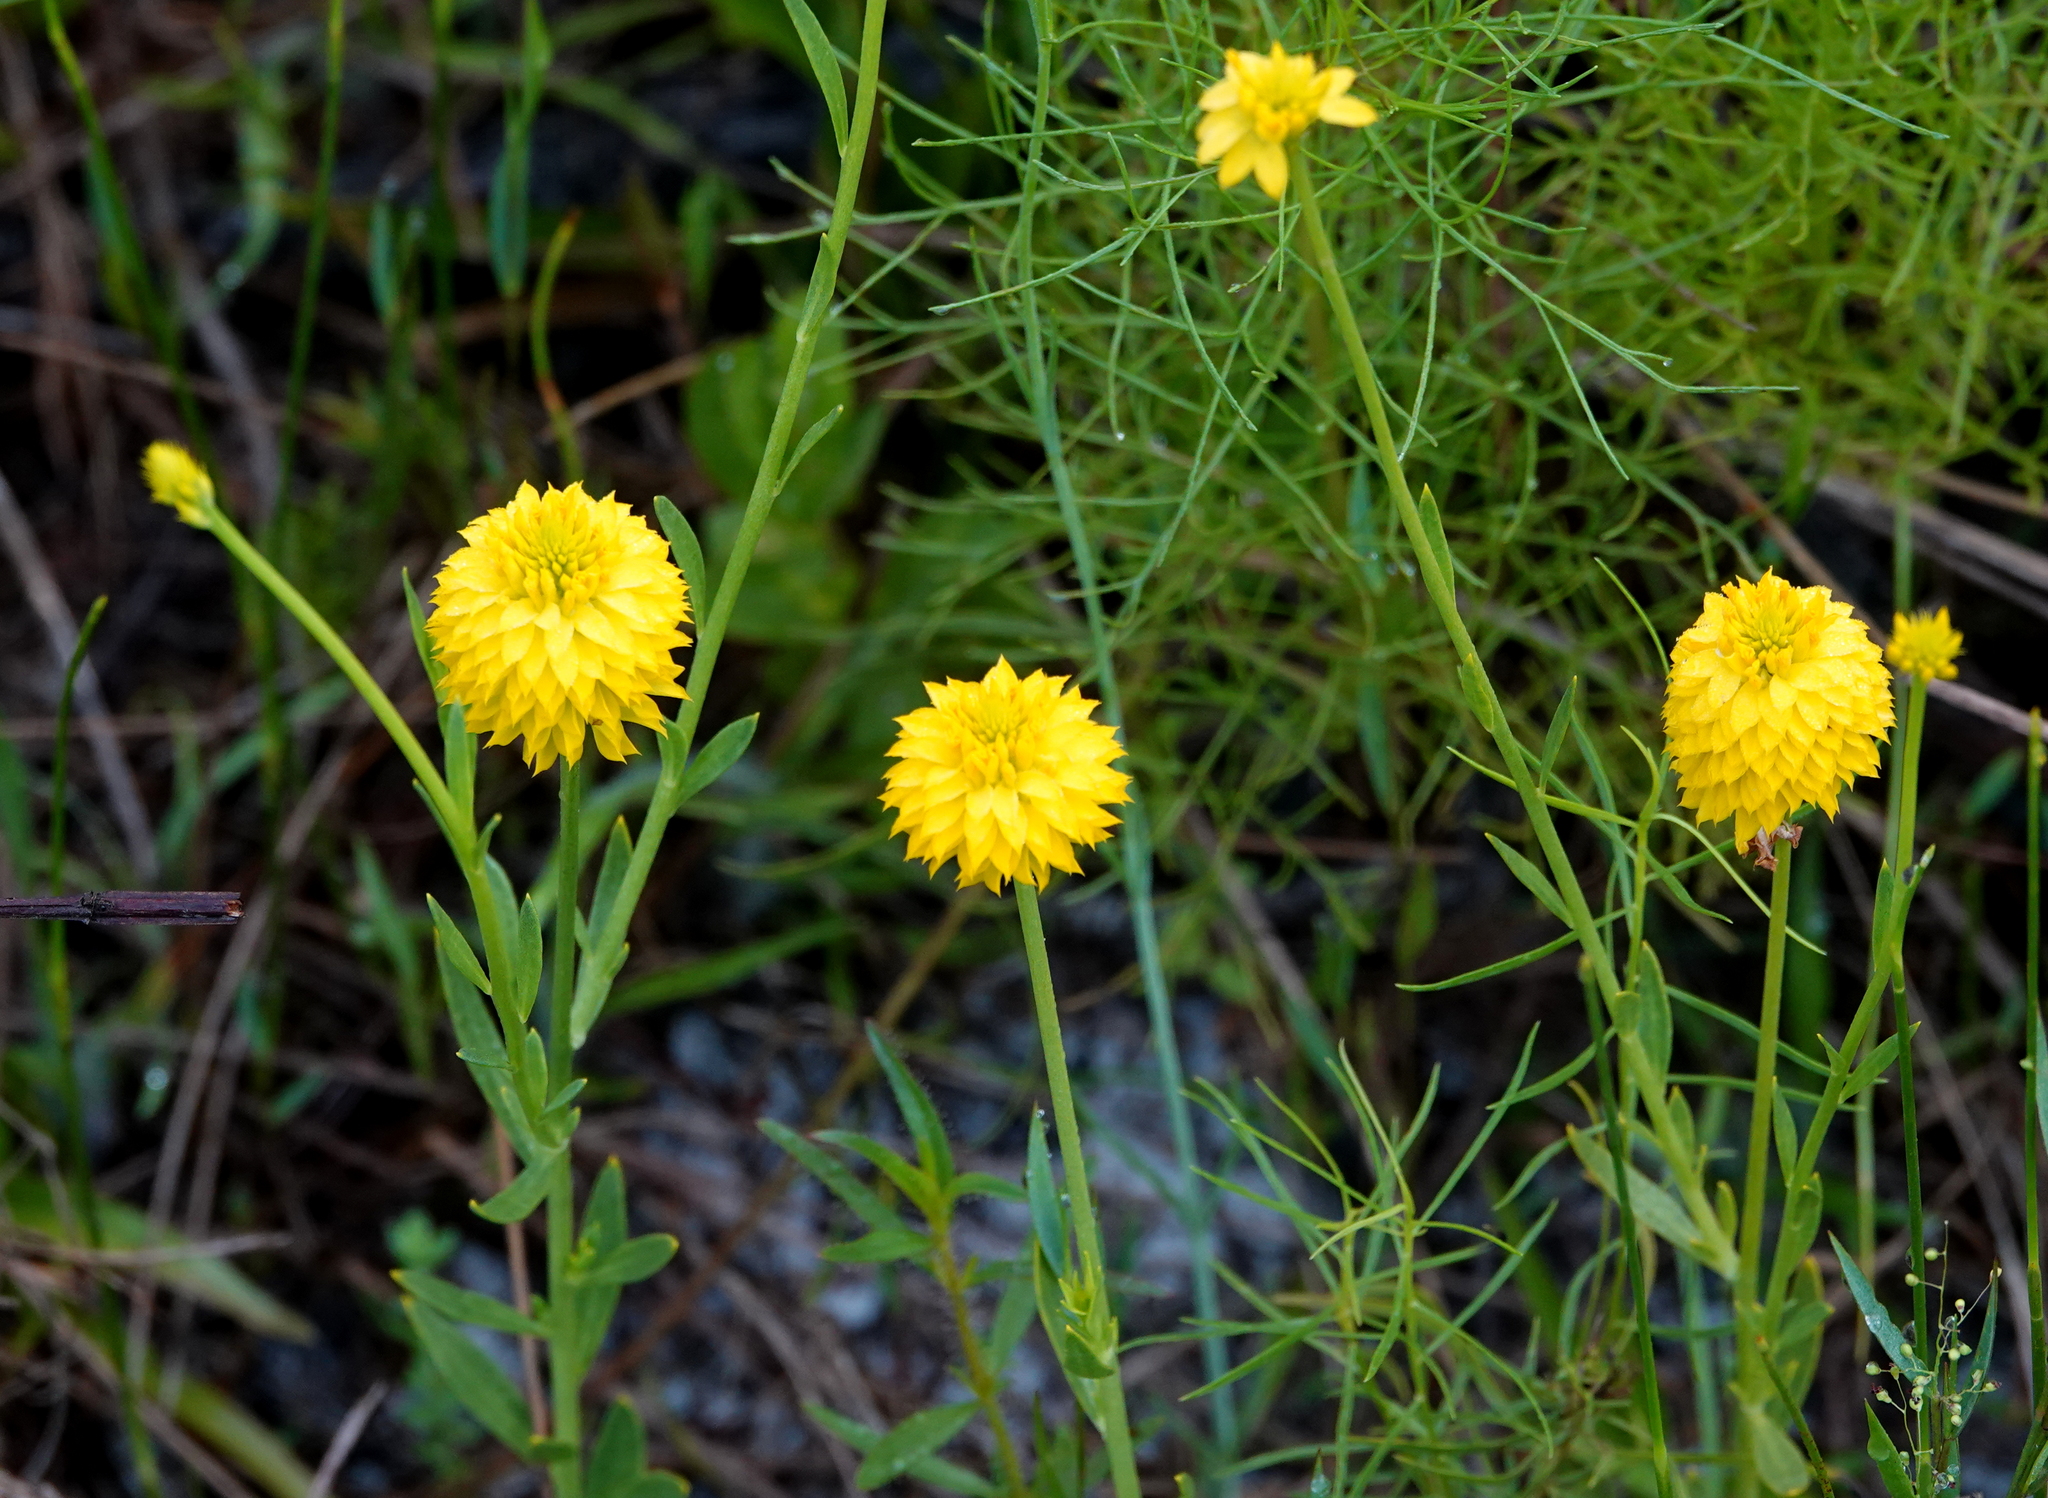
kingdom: Plantae
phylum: Tracheophyta
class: Magnoliopsida
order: Fabales
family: Polygalaceae
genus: Polygala
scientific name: Polygala rugelii
